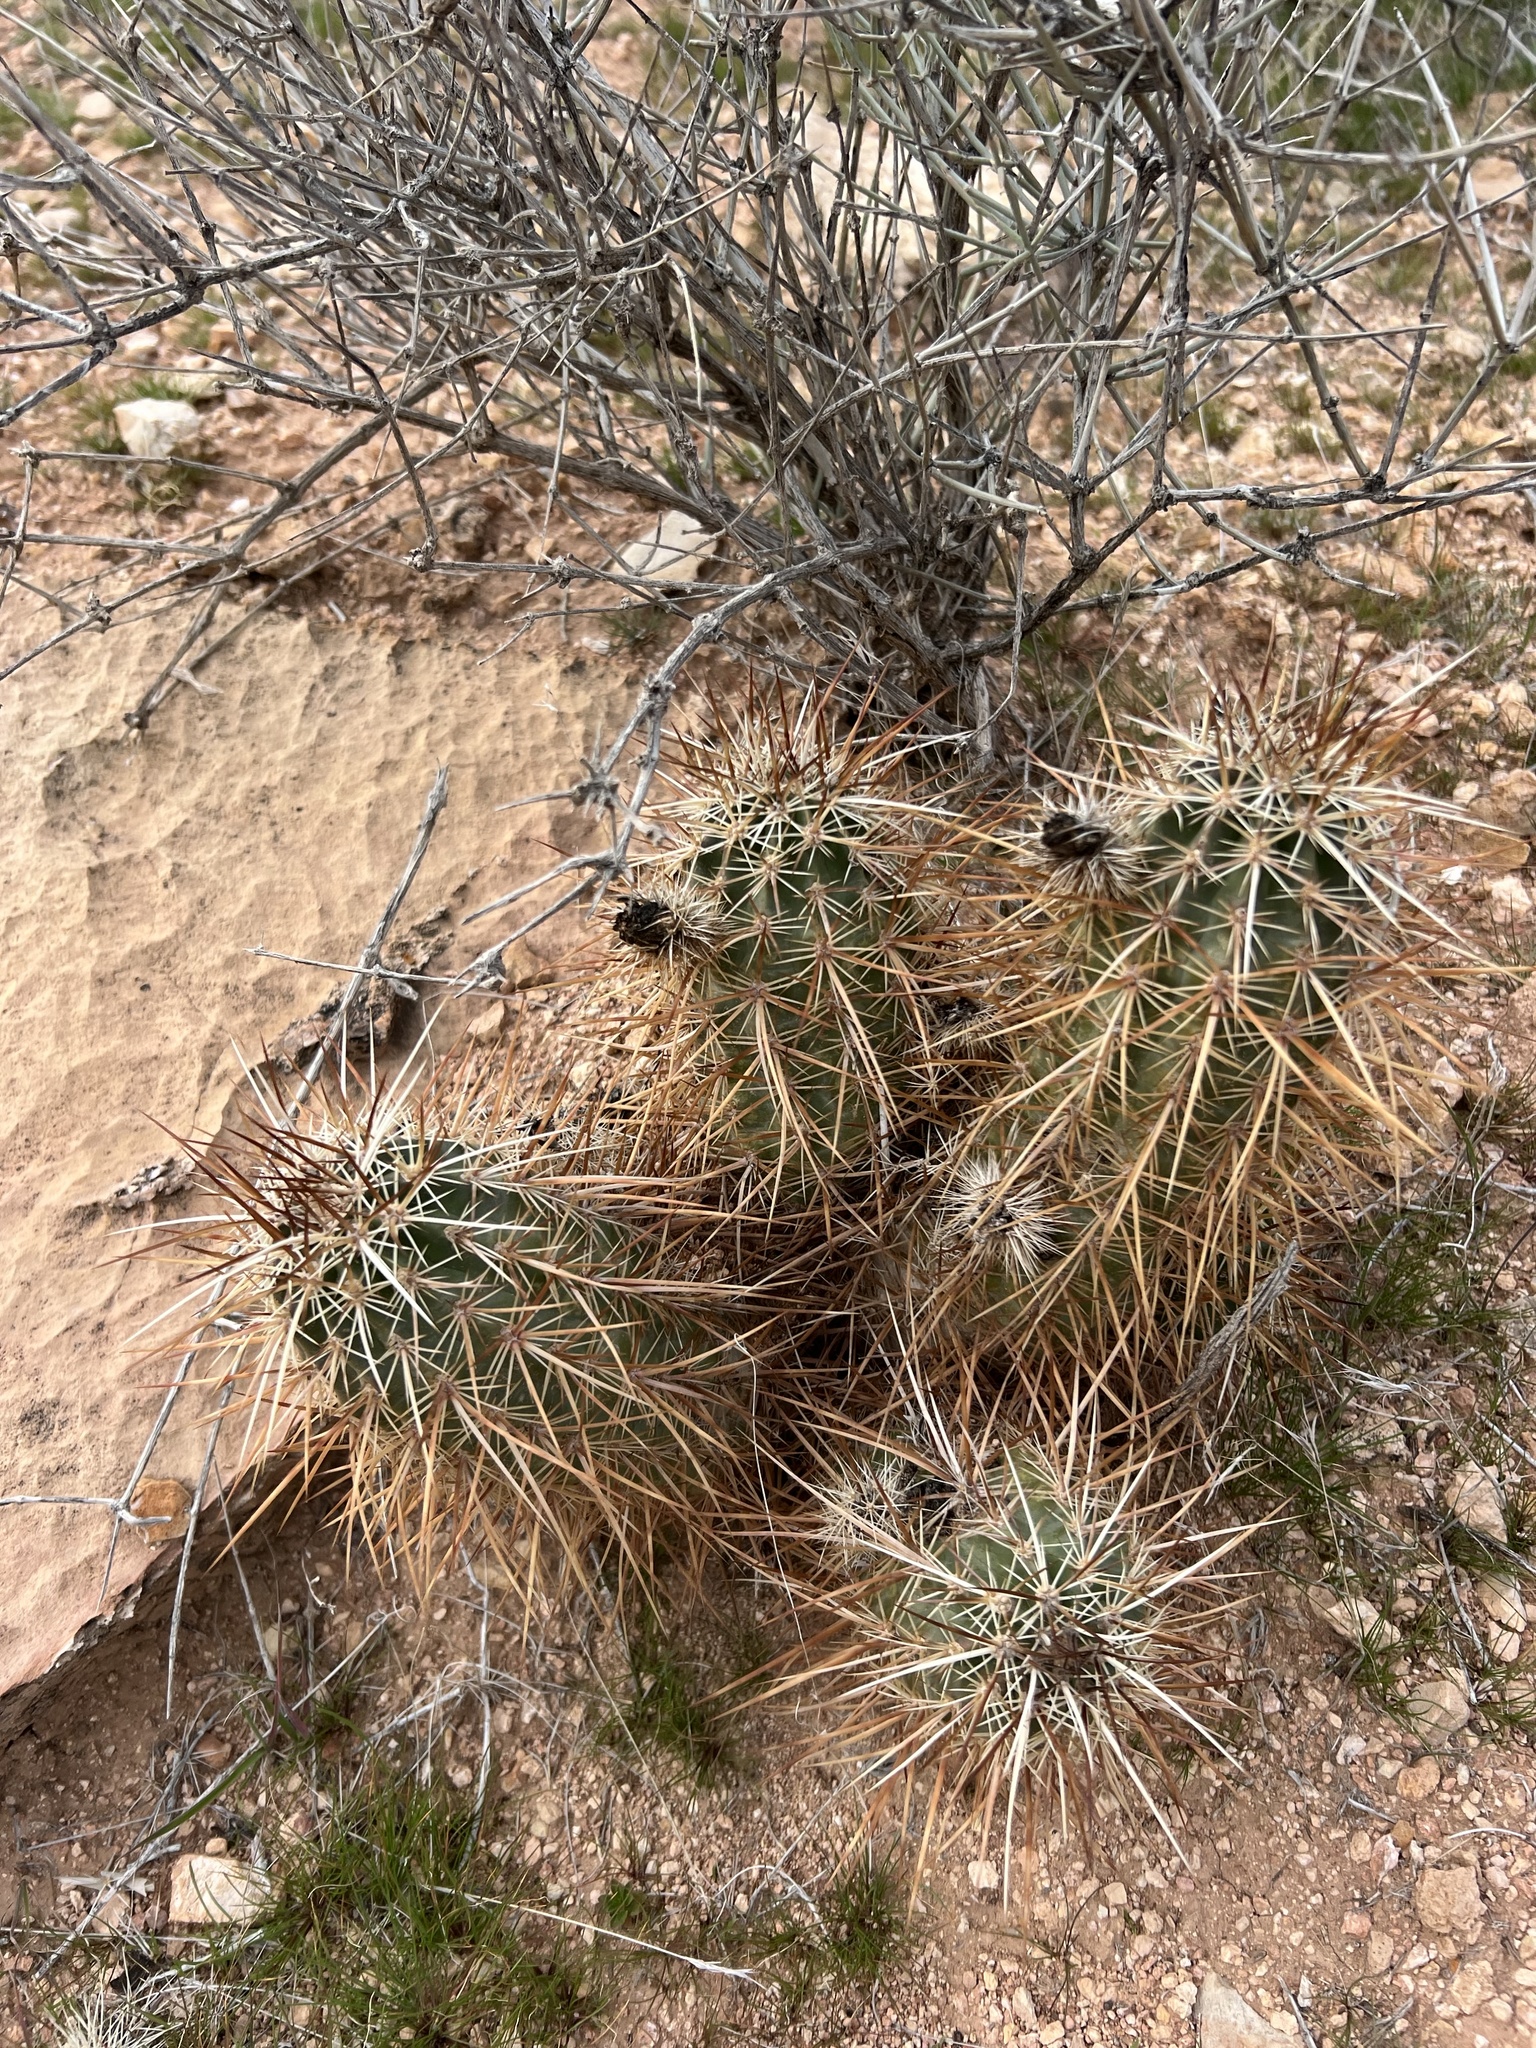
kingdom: Plantae
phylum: Tracheophyta
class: Magnoliopsida
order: Caryophyllales
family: Cactaceae
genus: Echinocereus
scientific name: Echinocereus engelmannii
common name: Engelmann's hedgehog cactus
